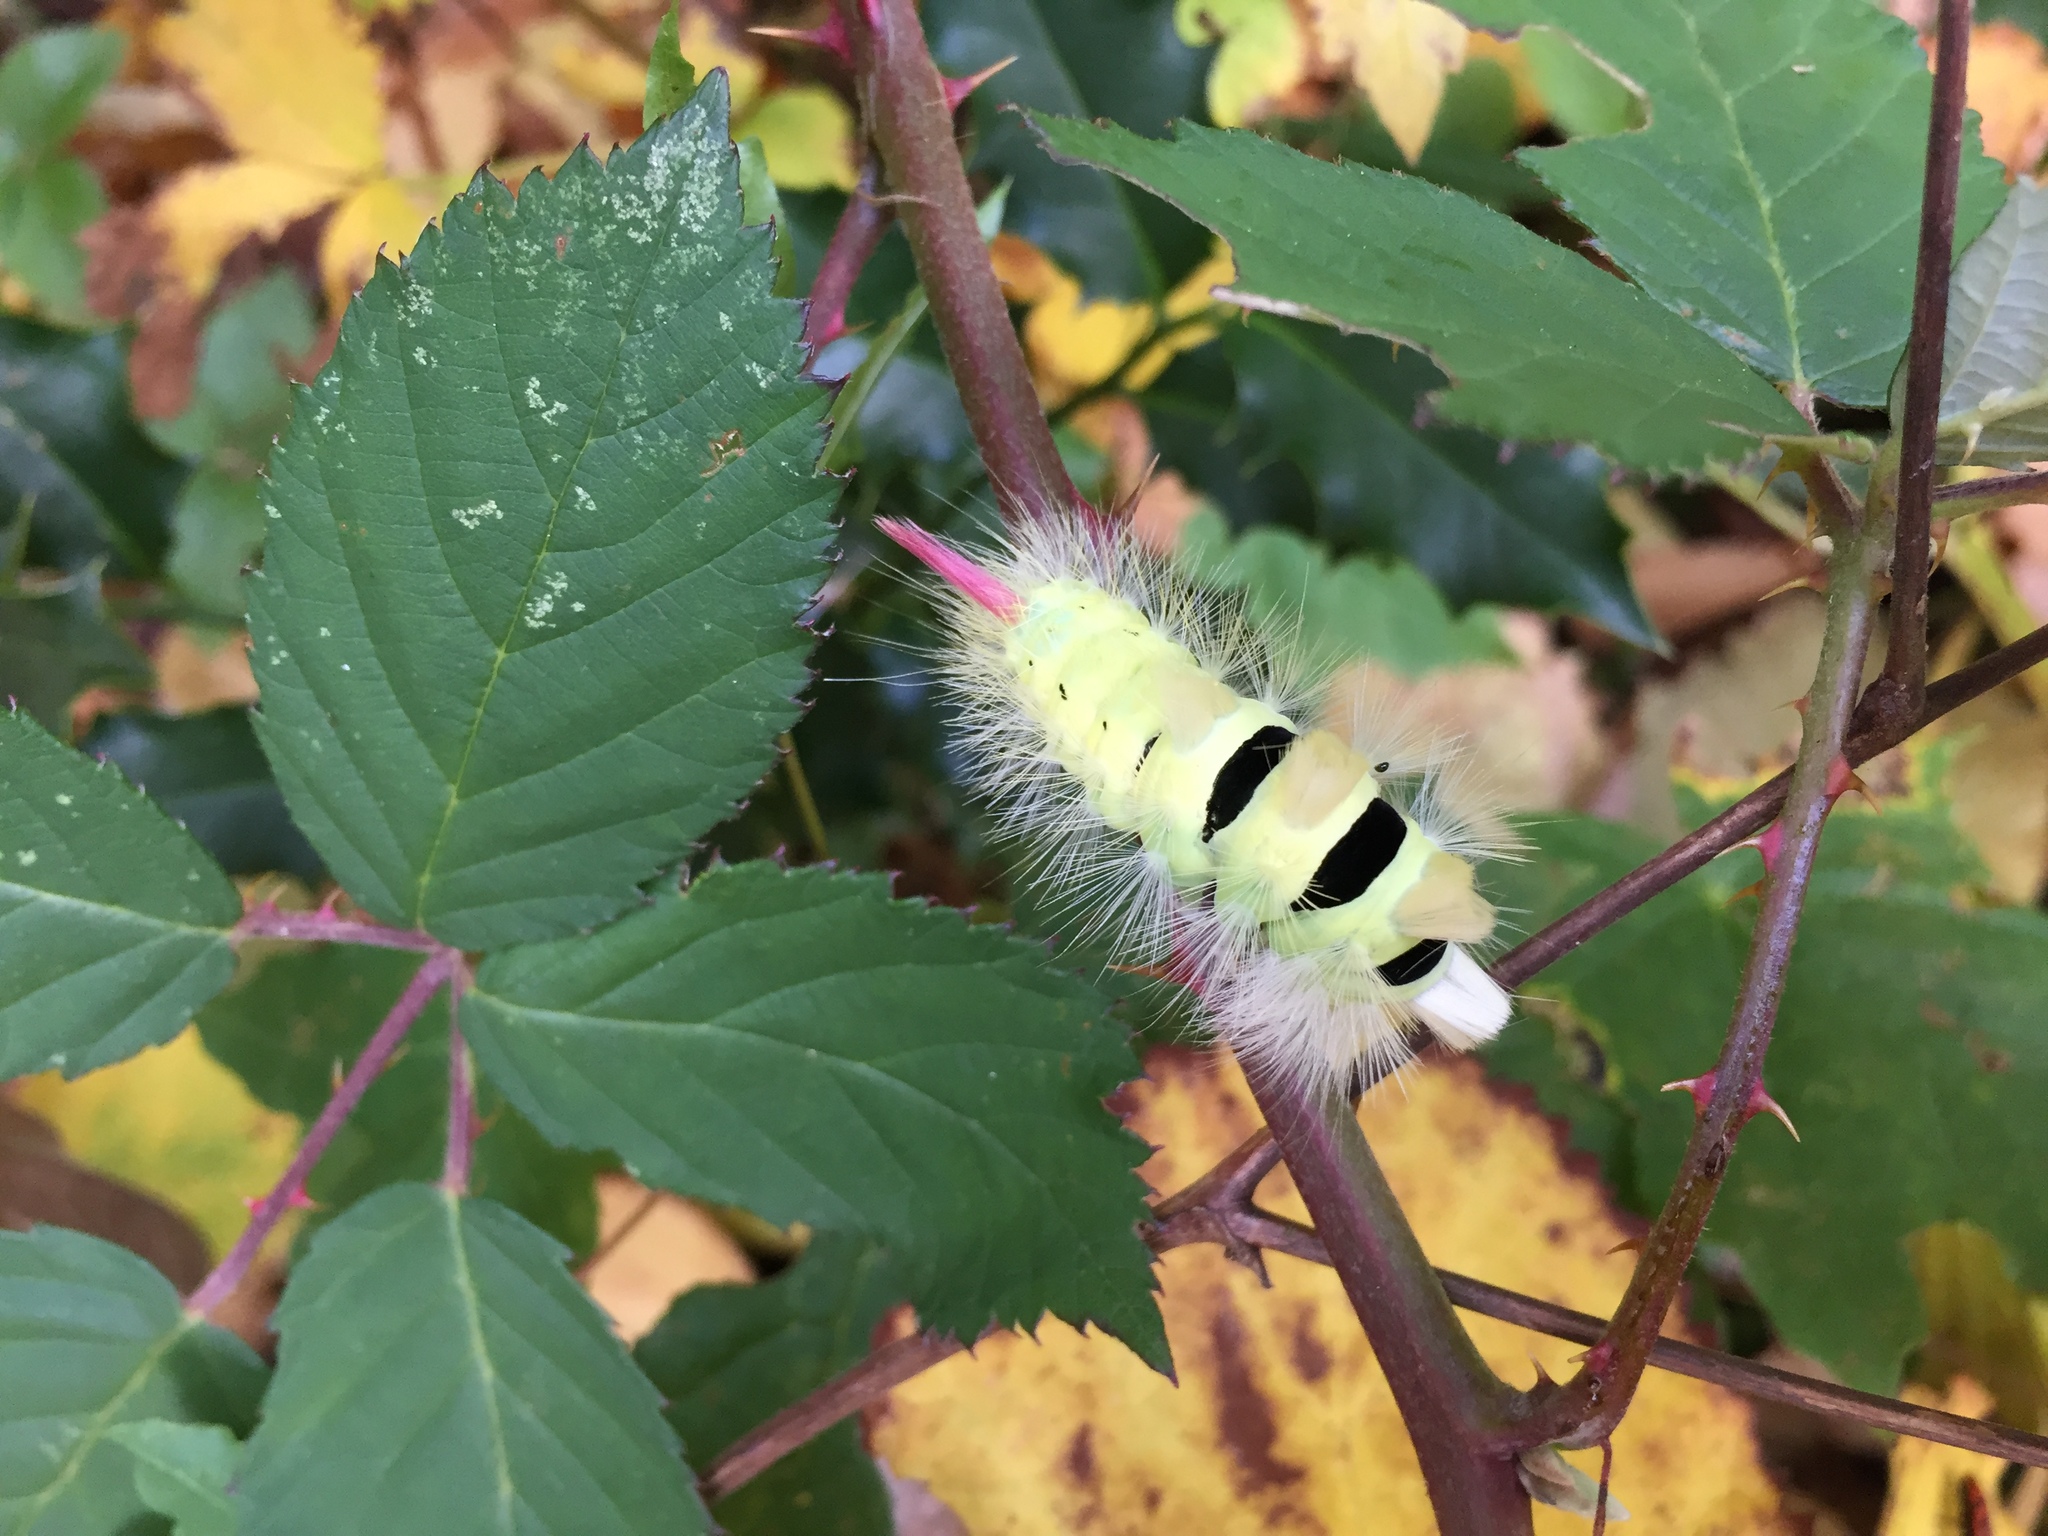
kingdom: Animalia
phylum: Arthropoda
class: Insecta
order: Lepidoptera
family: Erebidae
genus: Calliteara
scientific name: Calliteara pudibunda
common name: Pale tussock
